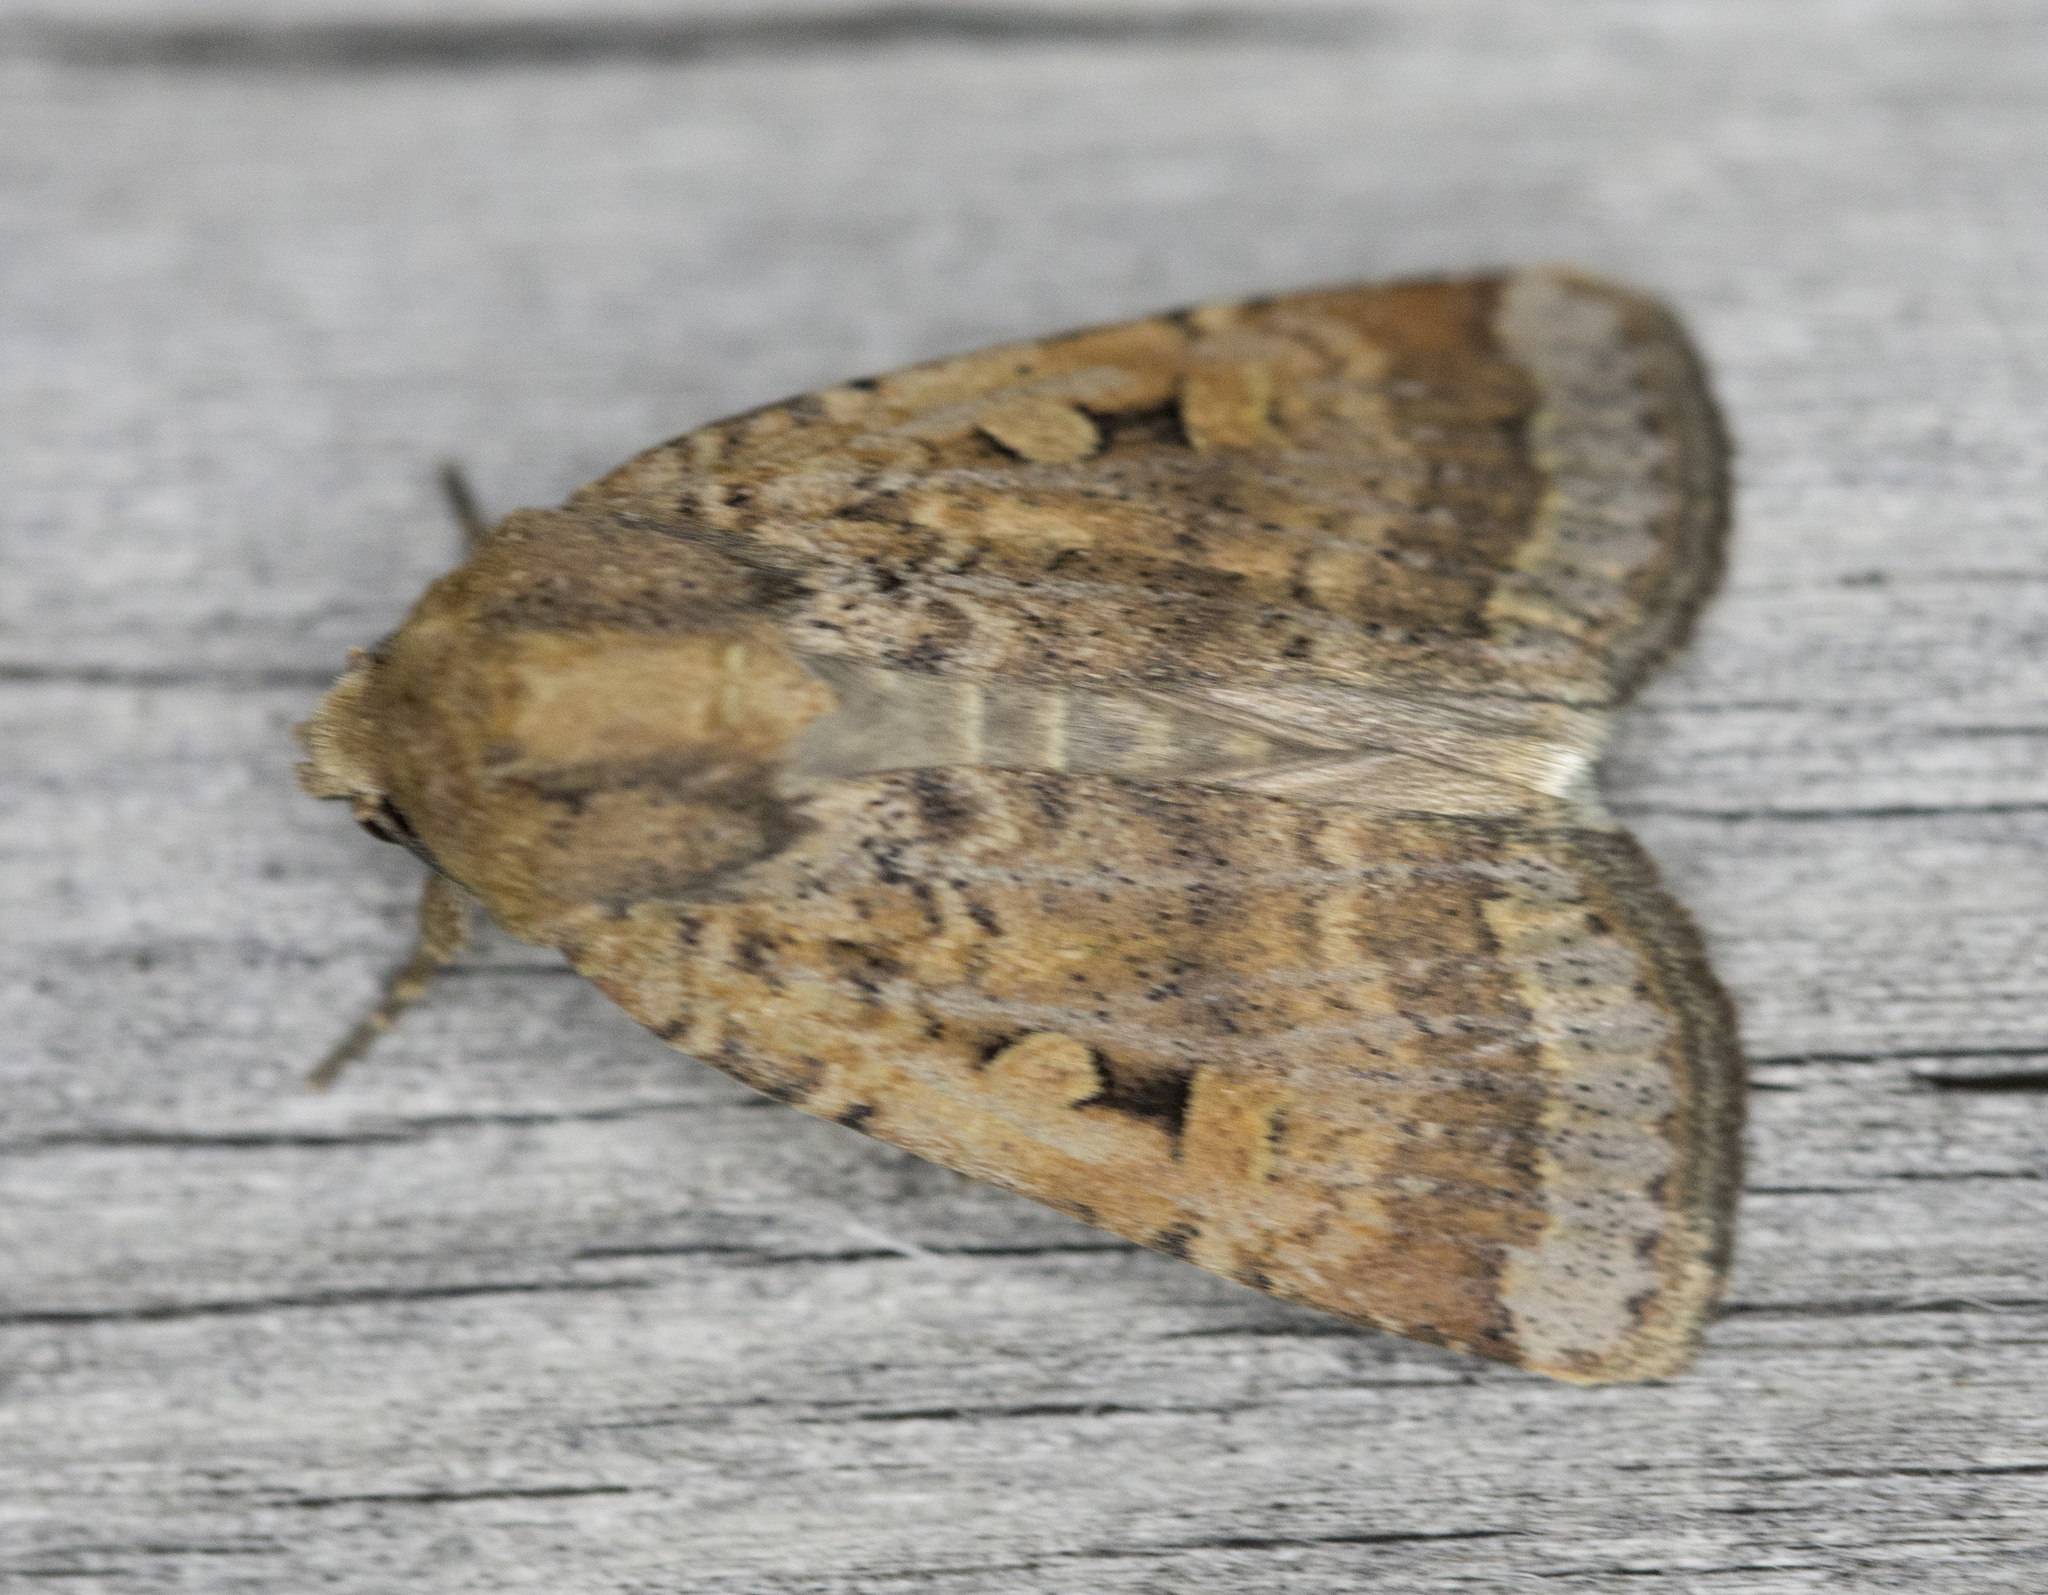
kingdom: Animalia
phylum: Arthropoda
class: Insecta
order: Lepidoptera
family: Noctuidae
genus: Abagrotis
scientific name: Abagrotis discoidalis
